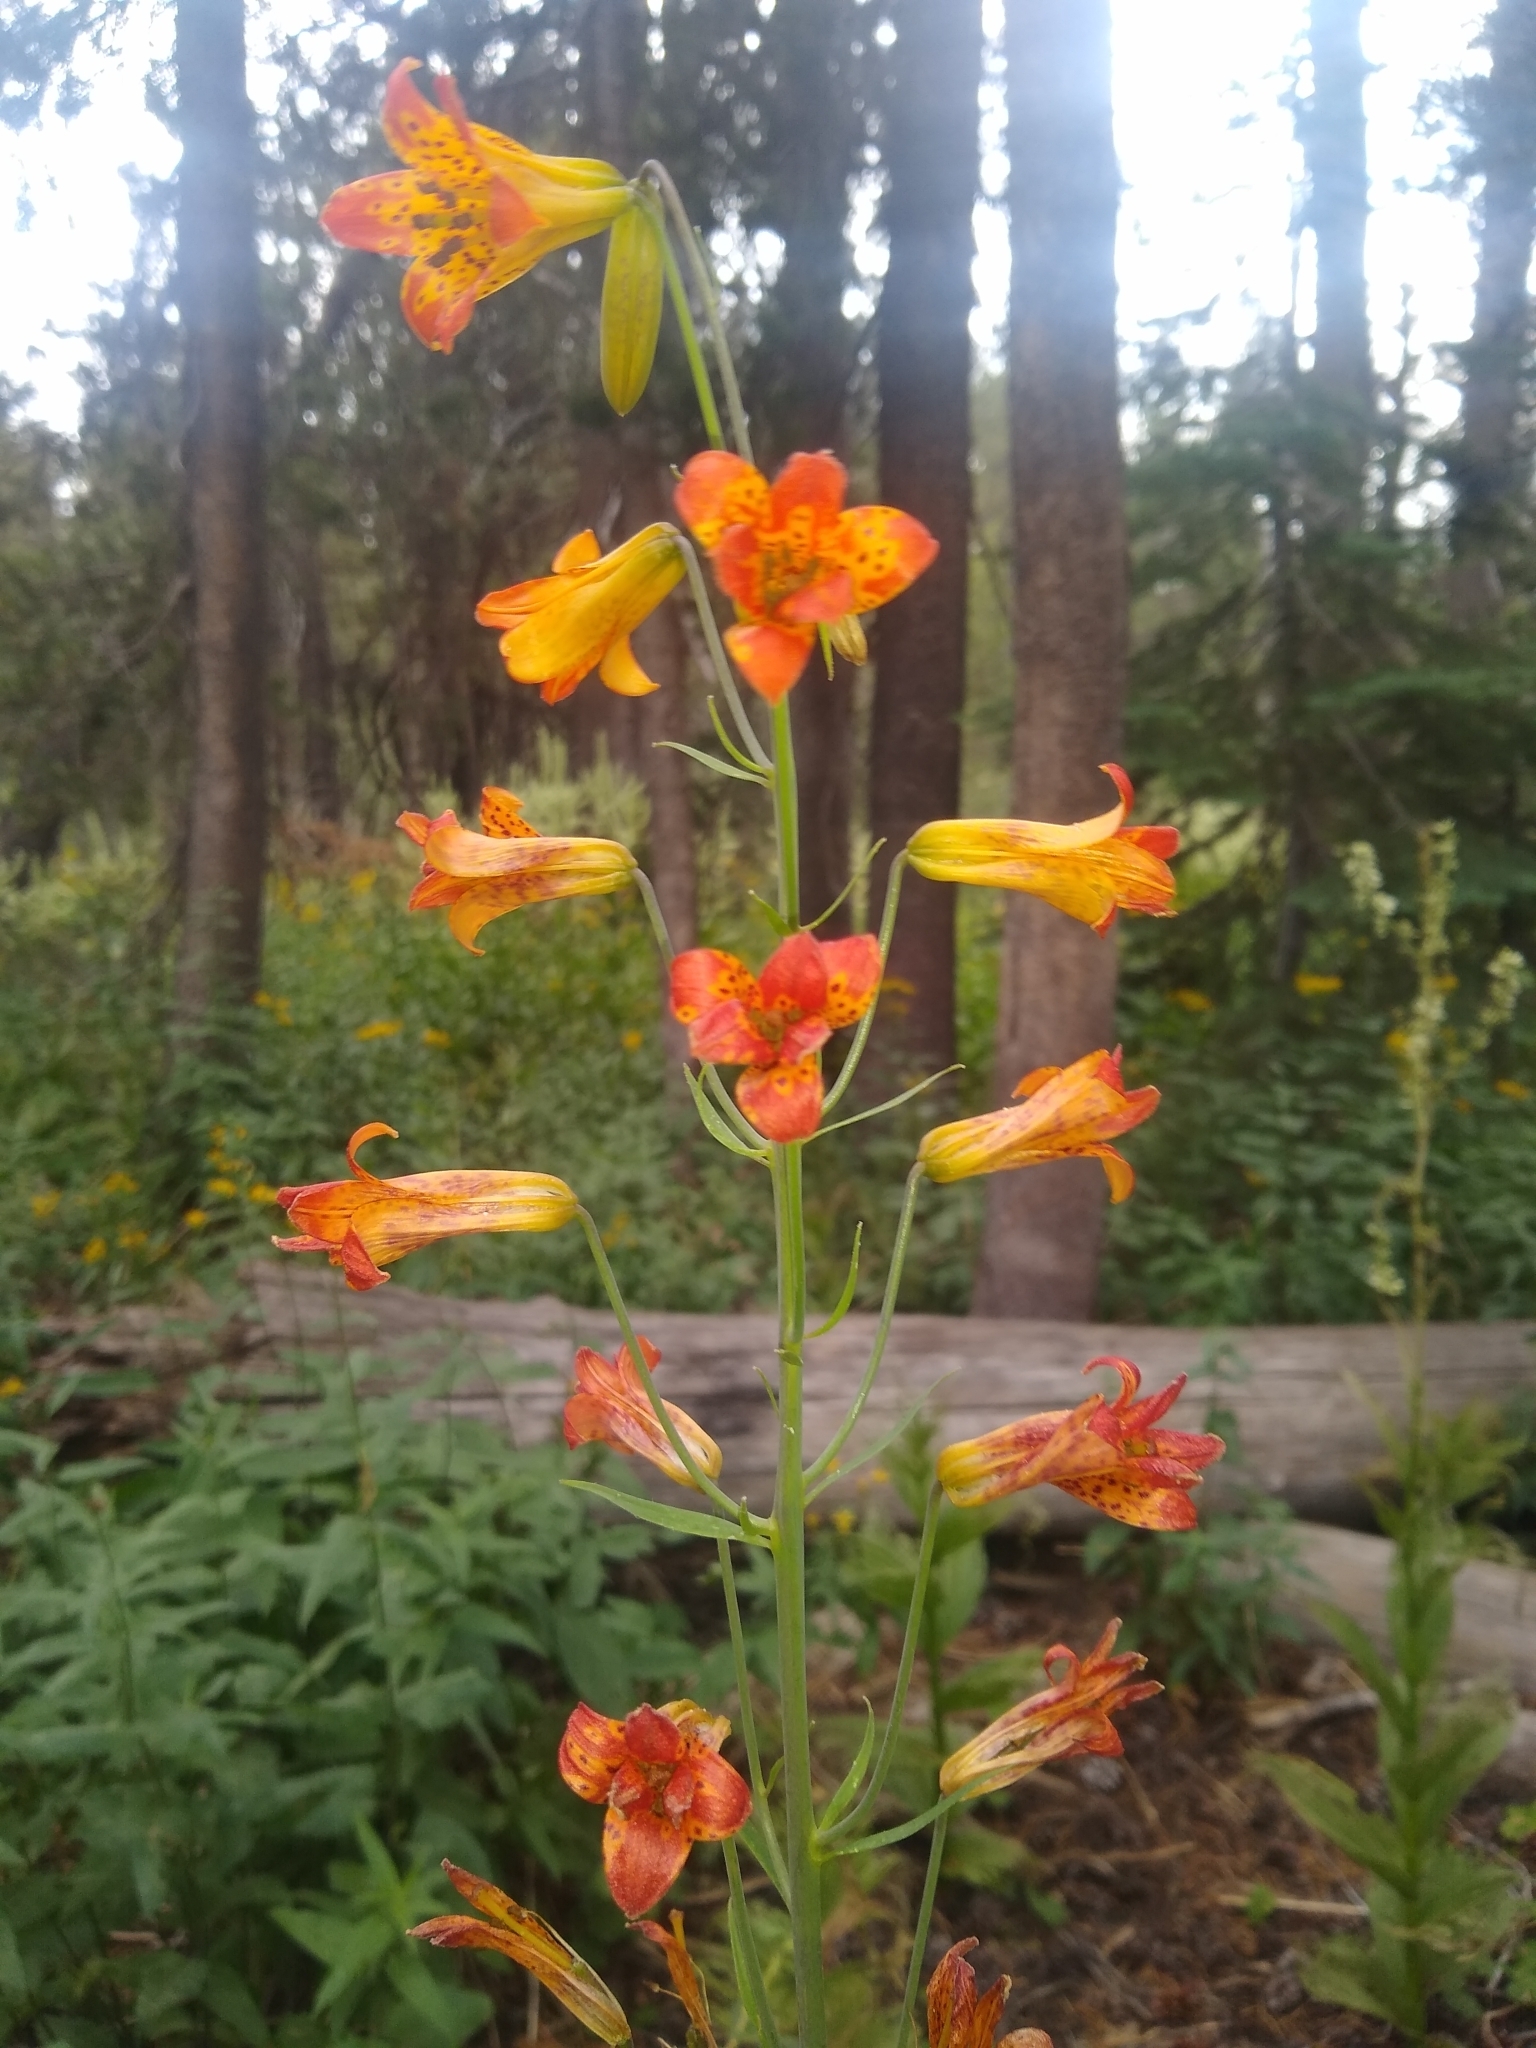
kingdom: Plantae
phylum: Tracheophyta
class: Liliopsida
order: Liliales
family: Liliaceae
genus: Lilium
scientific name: Lilium parvum
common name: Alpine lily
